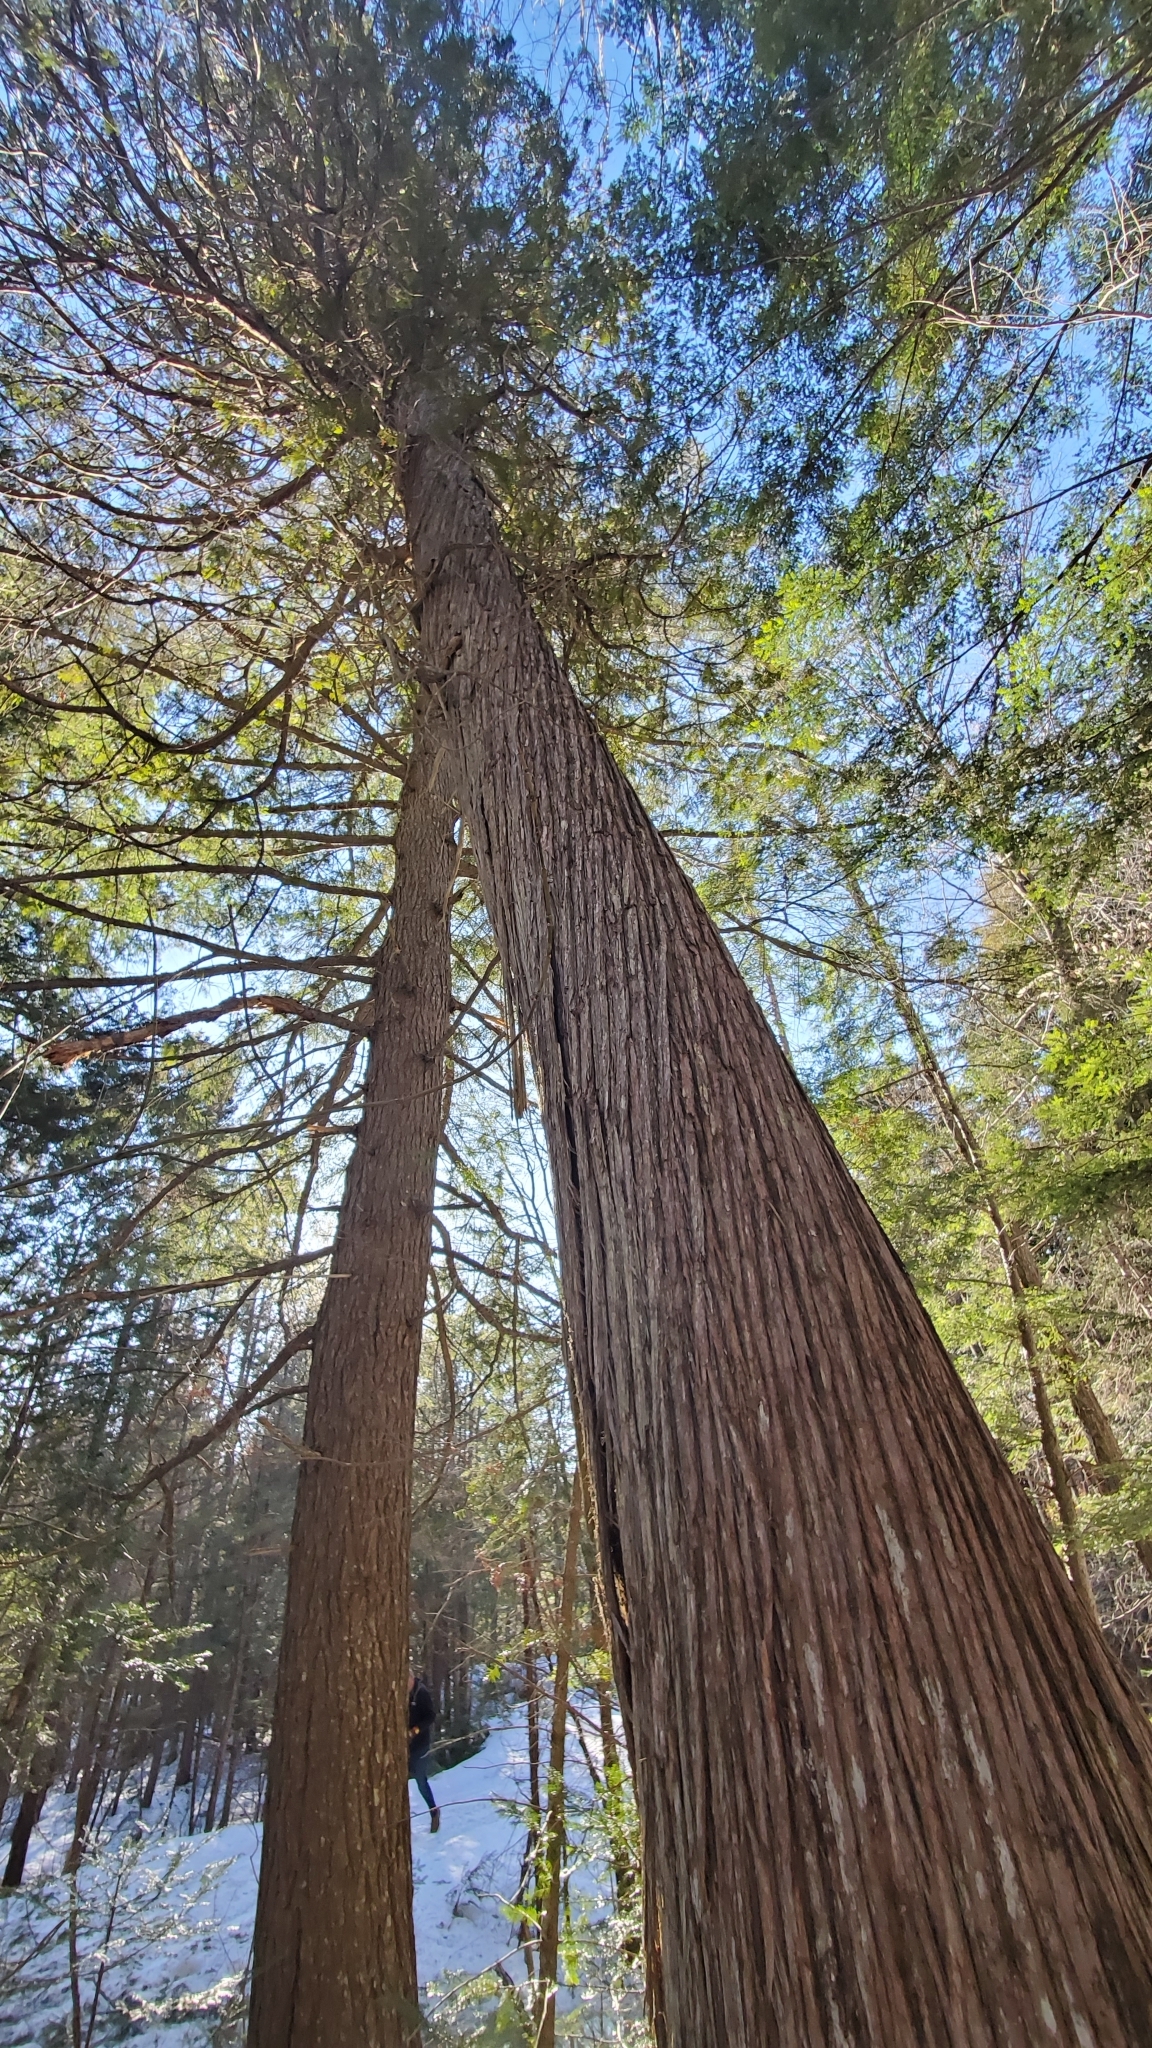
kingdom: Plantae
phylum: Tracheophyta
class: Pinopsida
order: Pinales
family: Cupressaceae
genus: Thuja
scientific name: Thuja occidentalis
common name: Northern white-cedar
